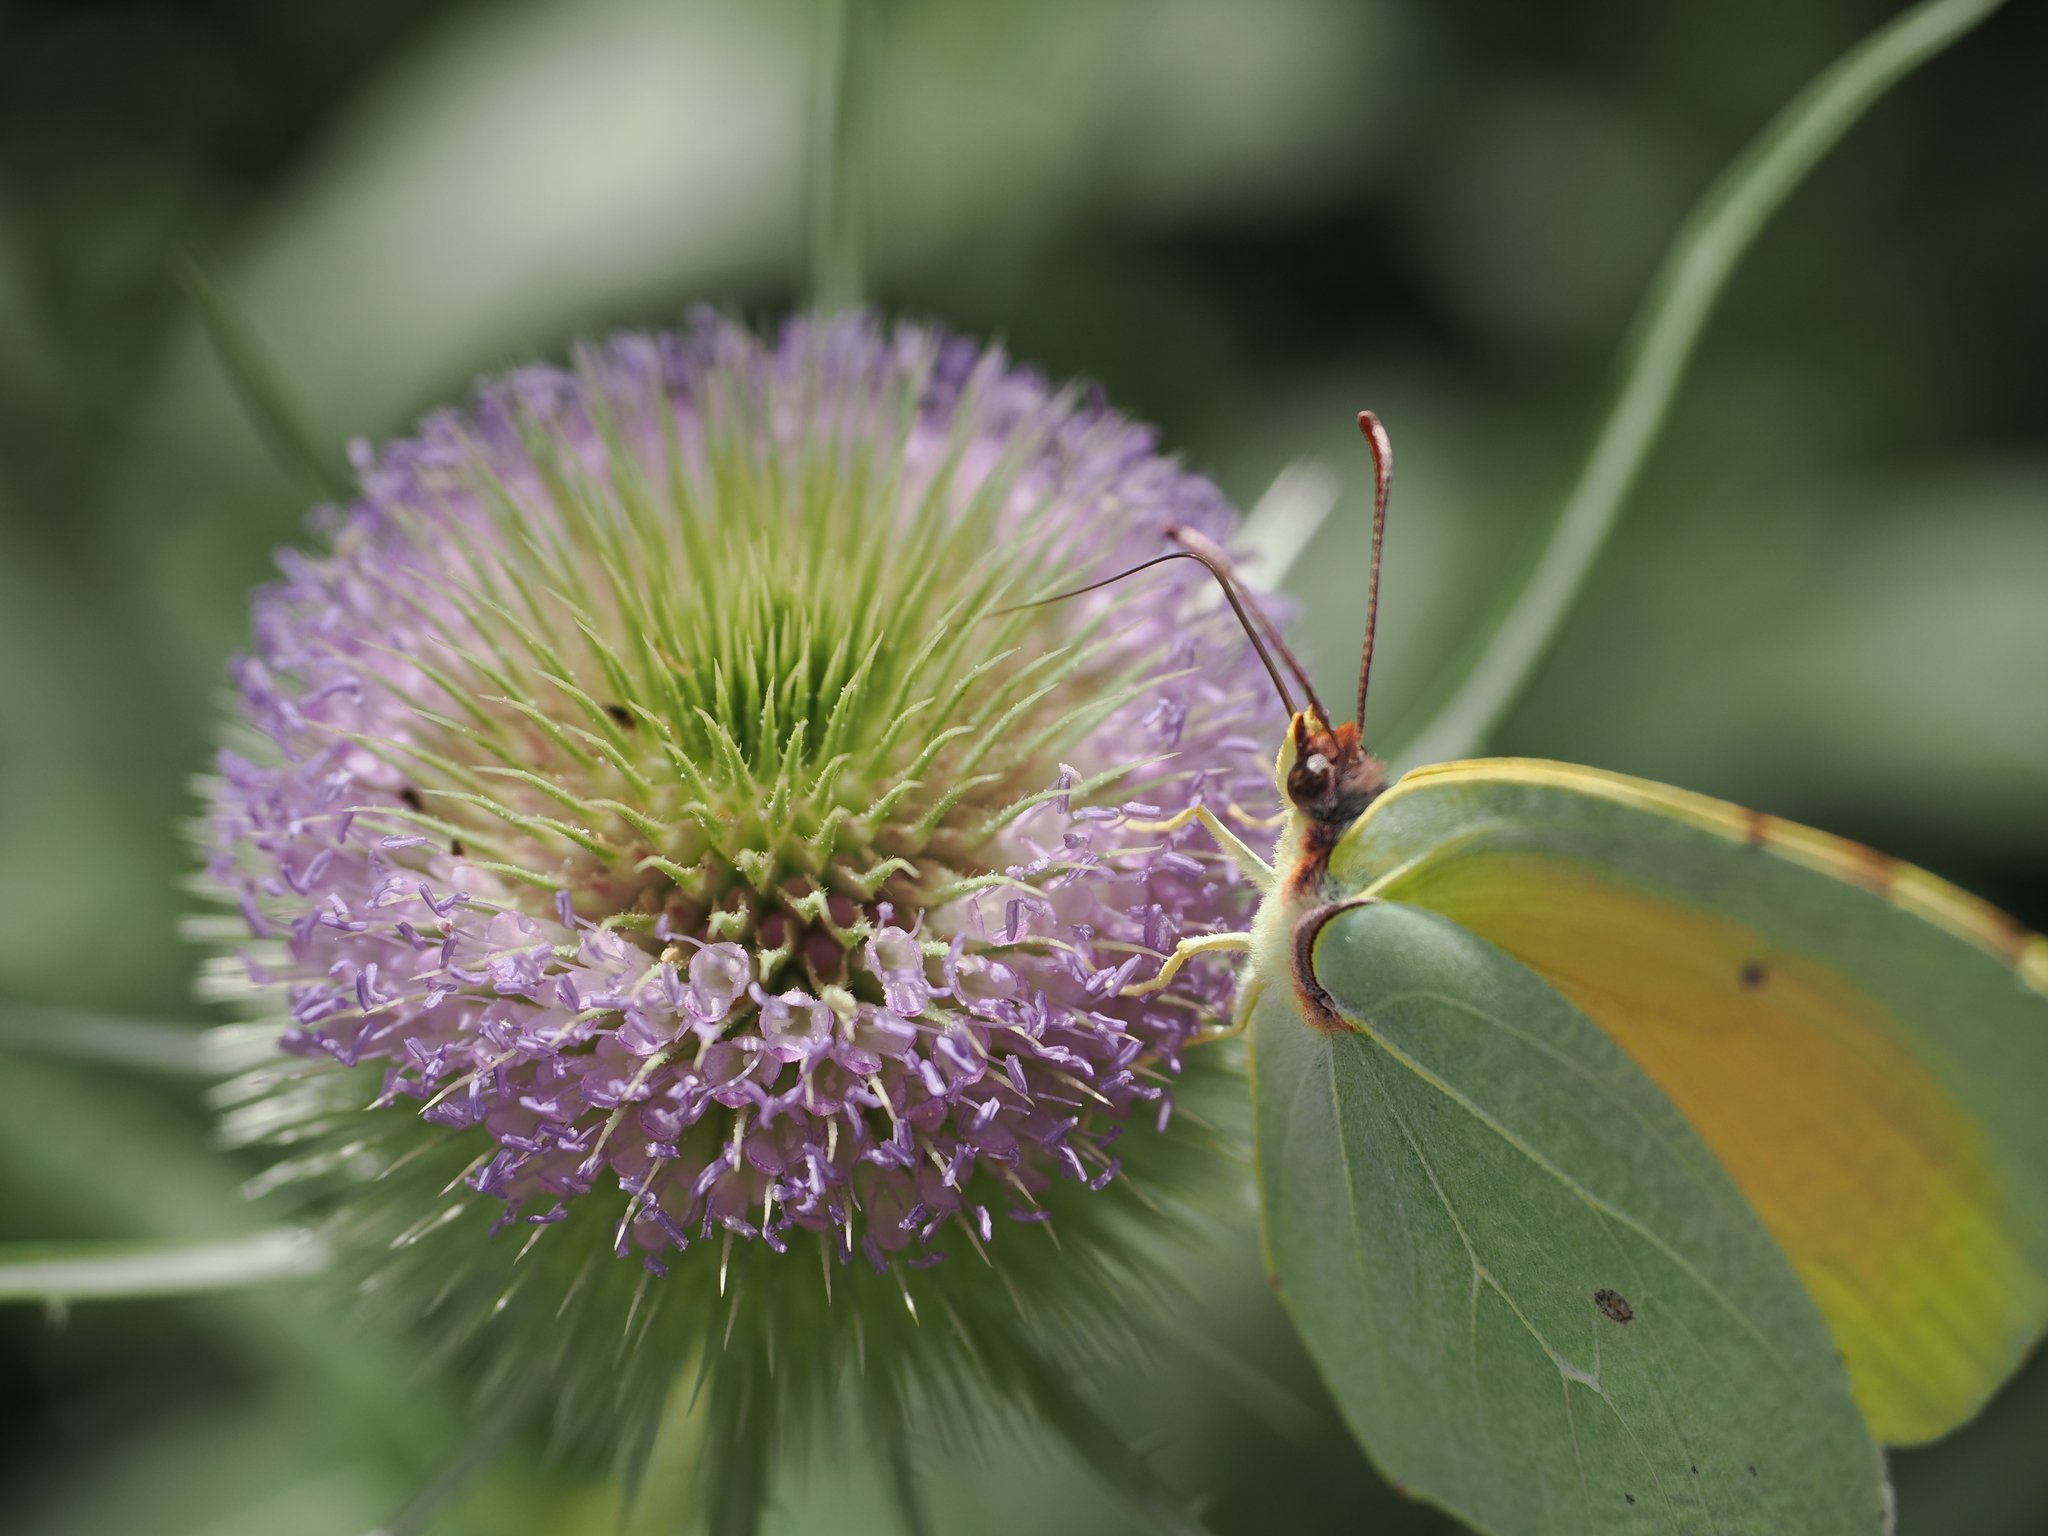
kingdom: Animalia
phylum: Arthropoda
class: Insecta
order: Lepidoptera
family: Pieridae
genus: Gonepteryx
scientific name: Gonepteryx cleopatra
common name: Cleopatra
